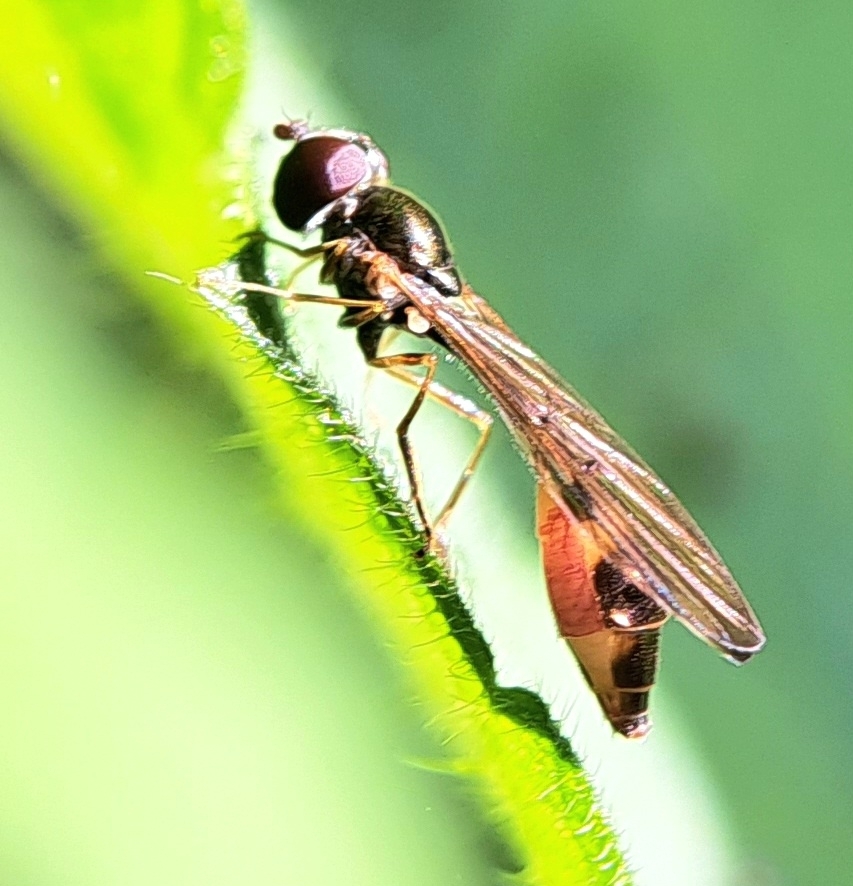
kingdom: Animalia
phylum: Arthropoda
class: Insecta
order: Diptera
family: Syrphidae
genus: Baccha
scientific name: Baccha elongata
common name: Common dainty
